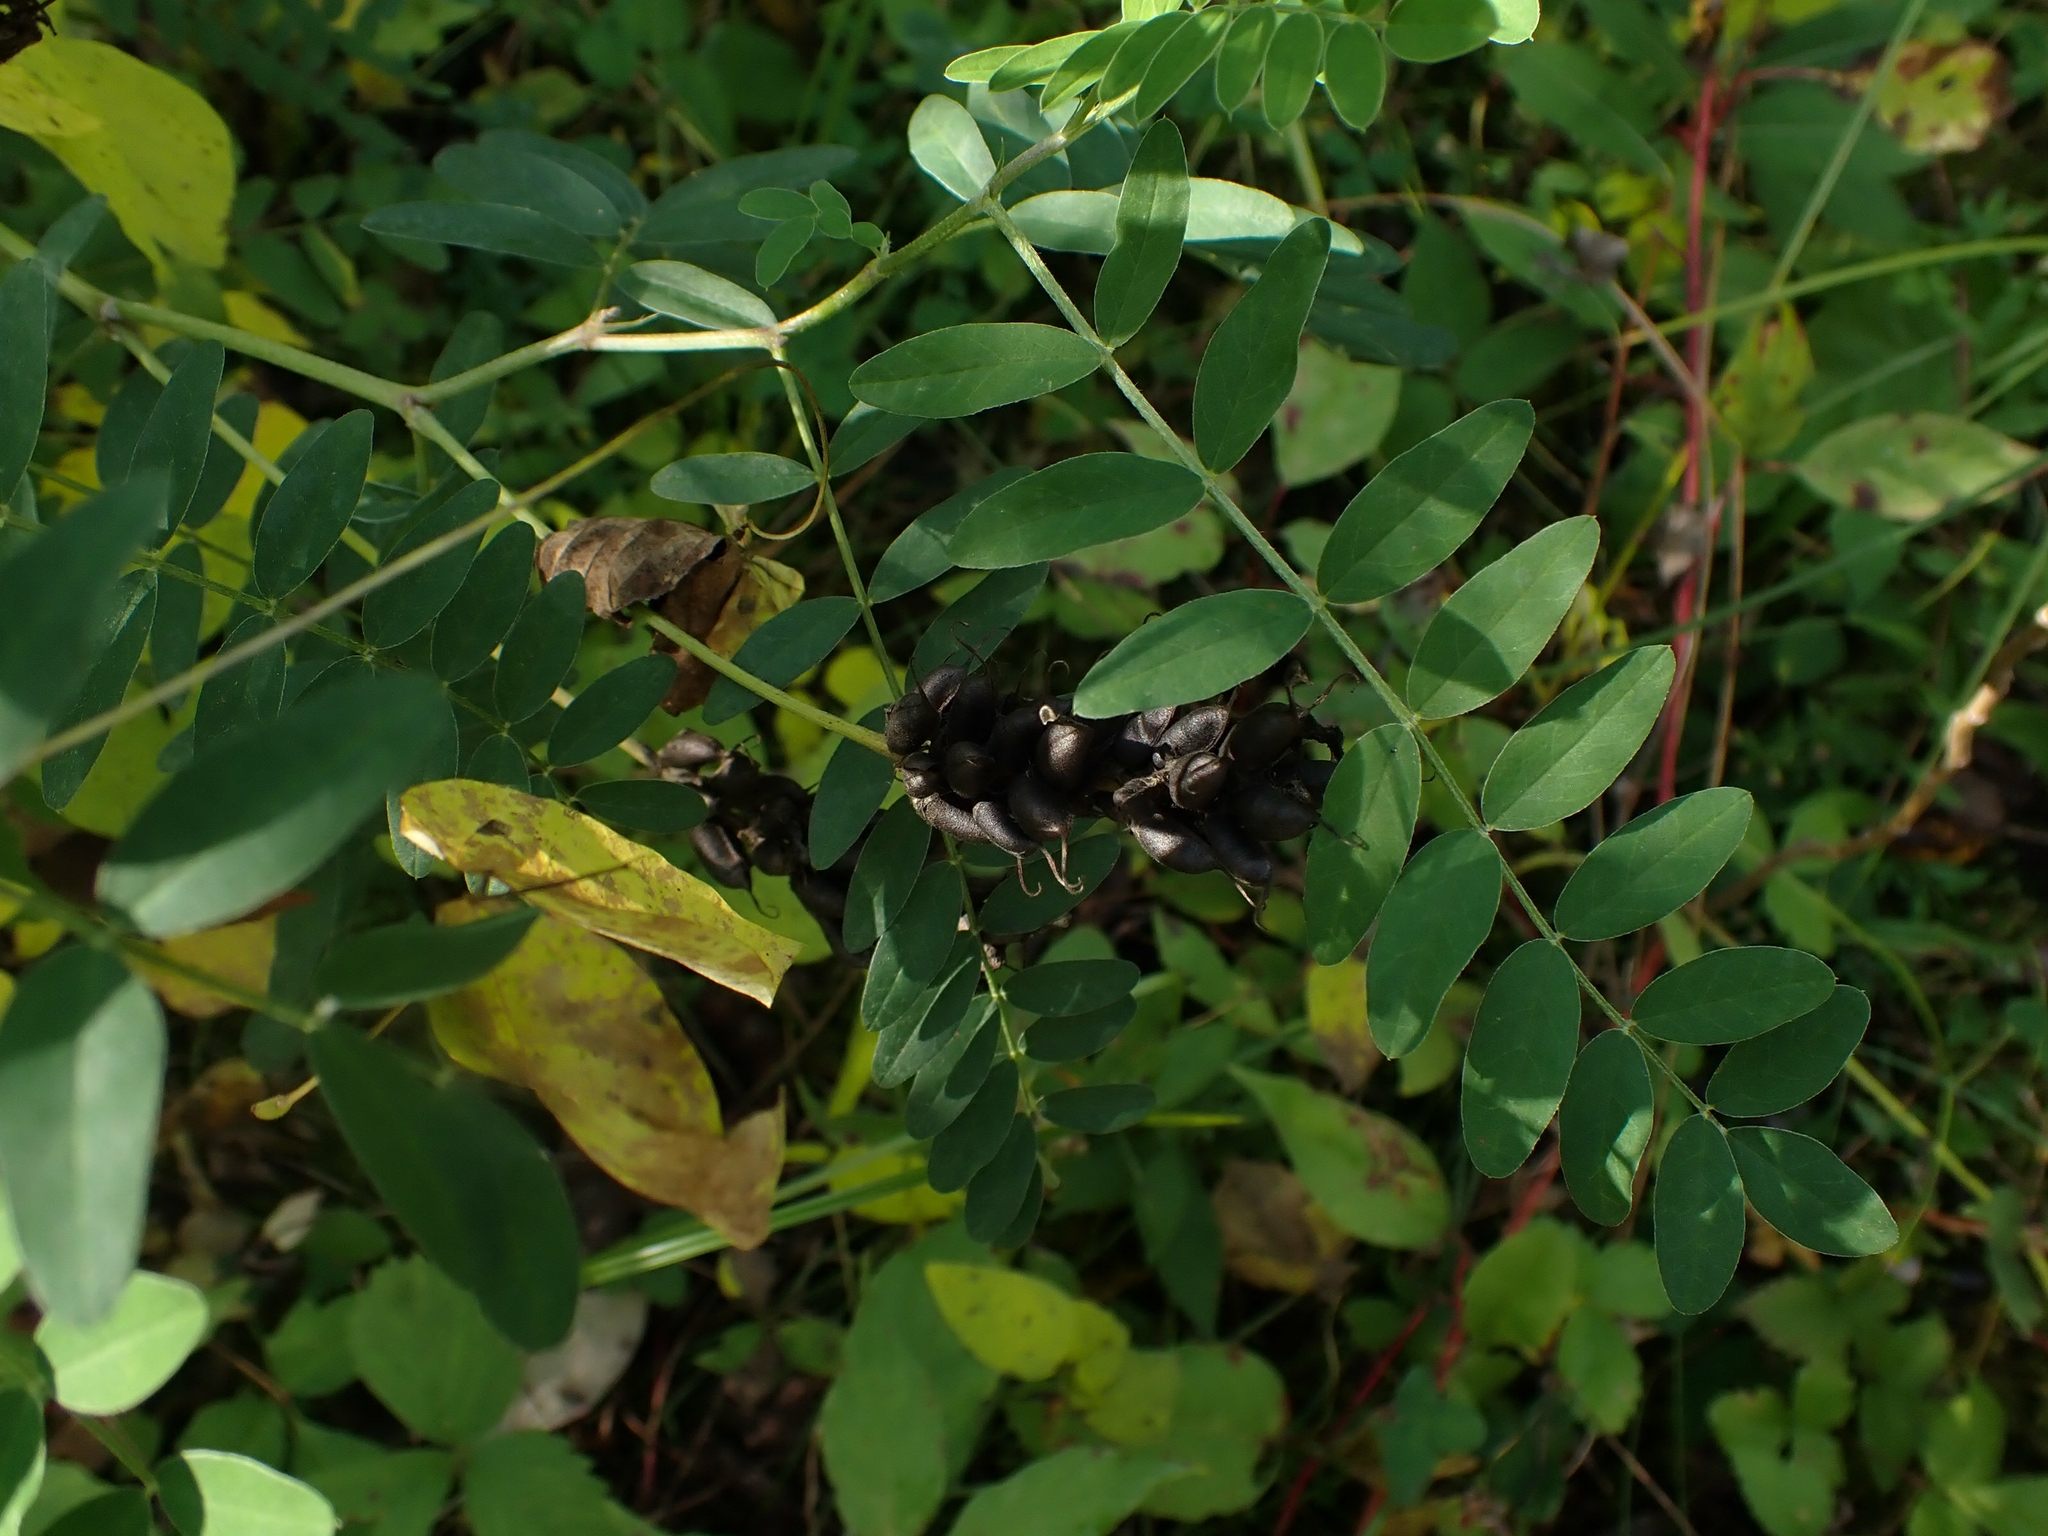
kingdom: Plantae
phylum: Tracheophyta
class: Magnoliopsida
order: Fabales
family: Fabaceae
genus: Astragalus
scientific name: Astragalus canadensis
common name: Canada milk-vetch
